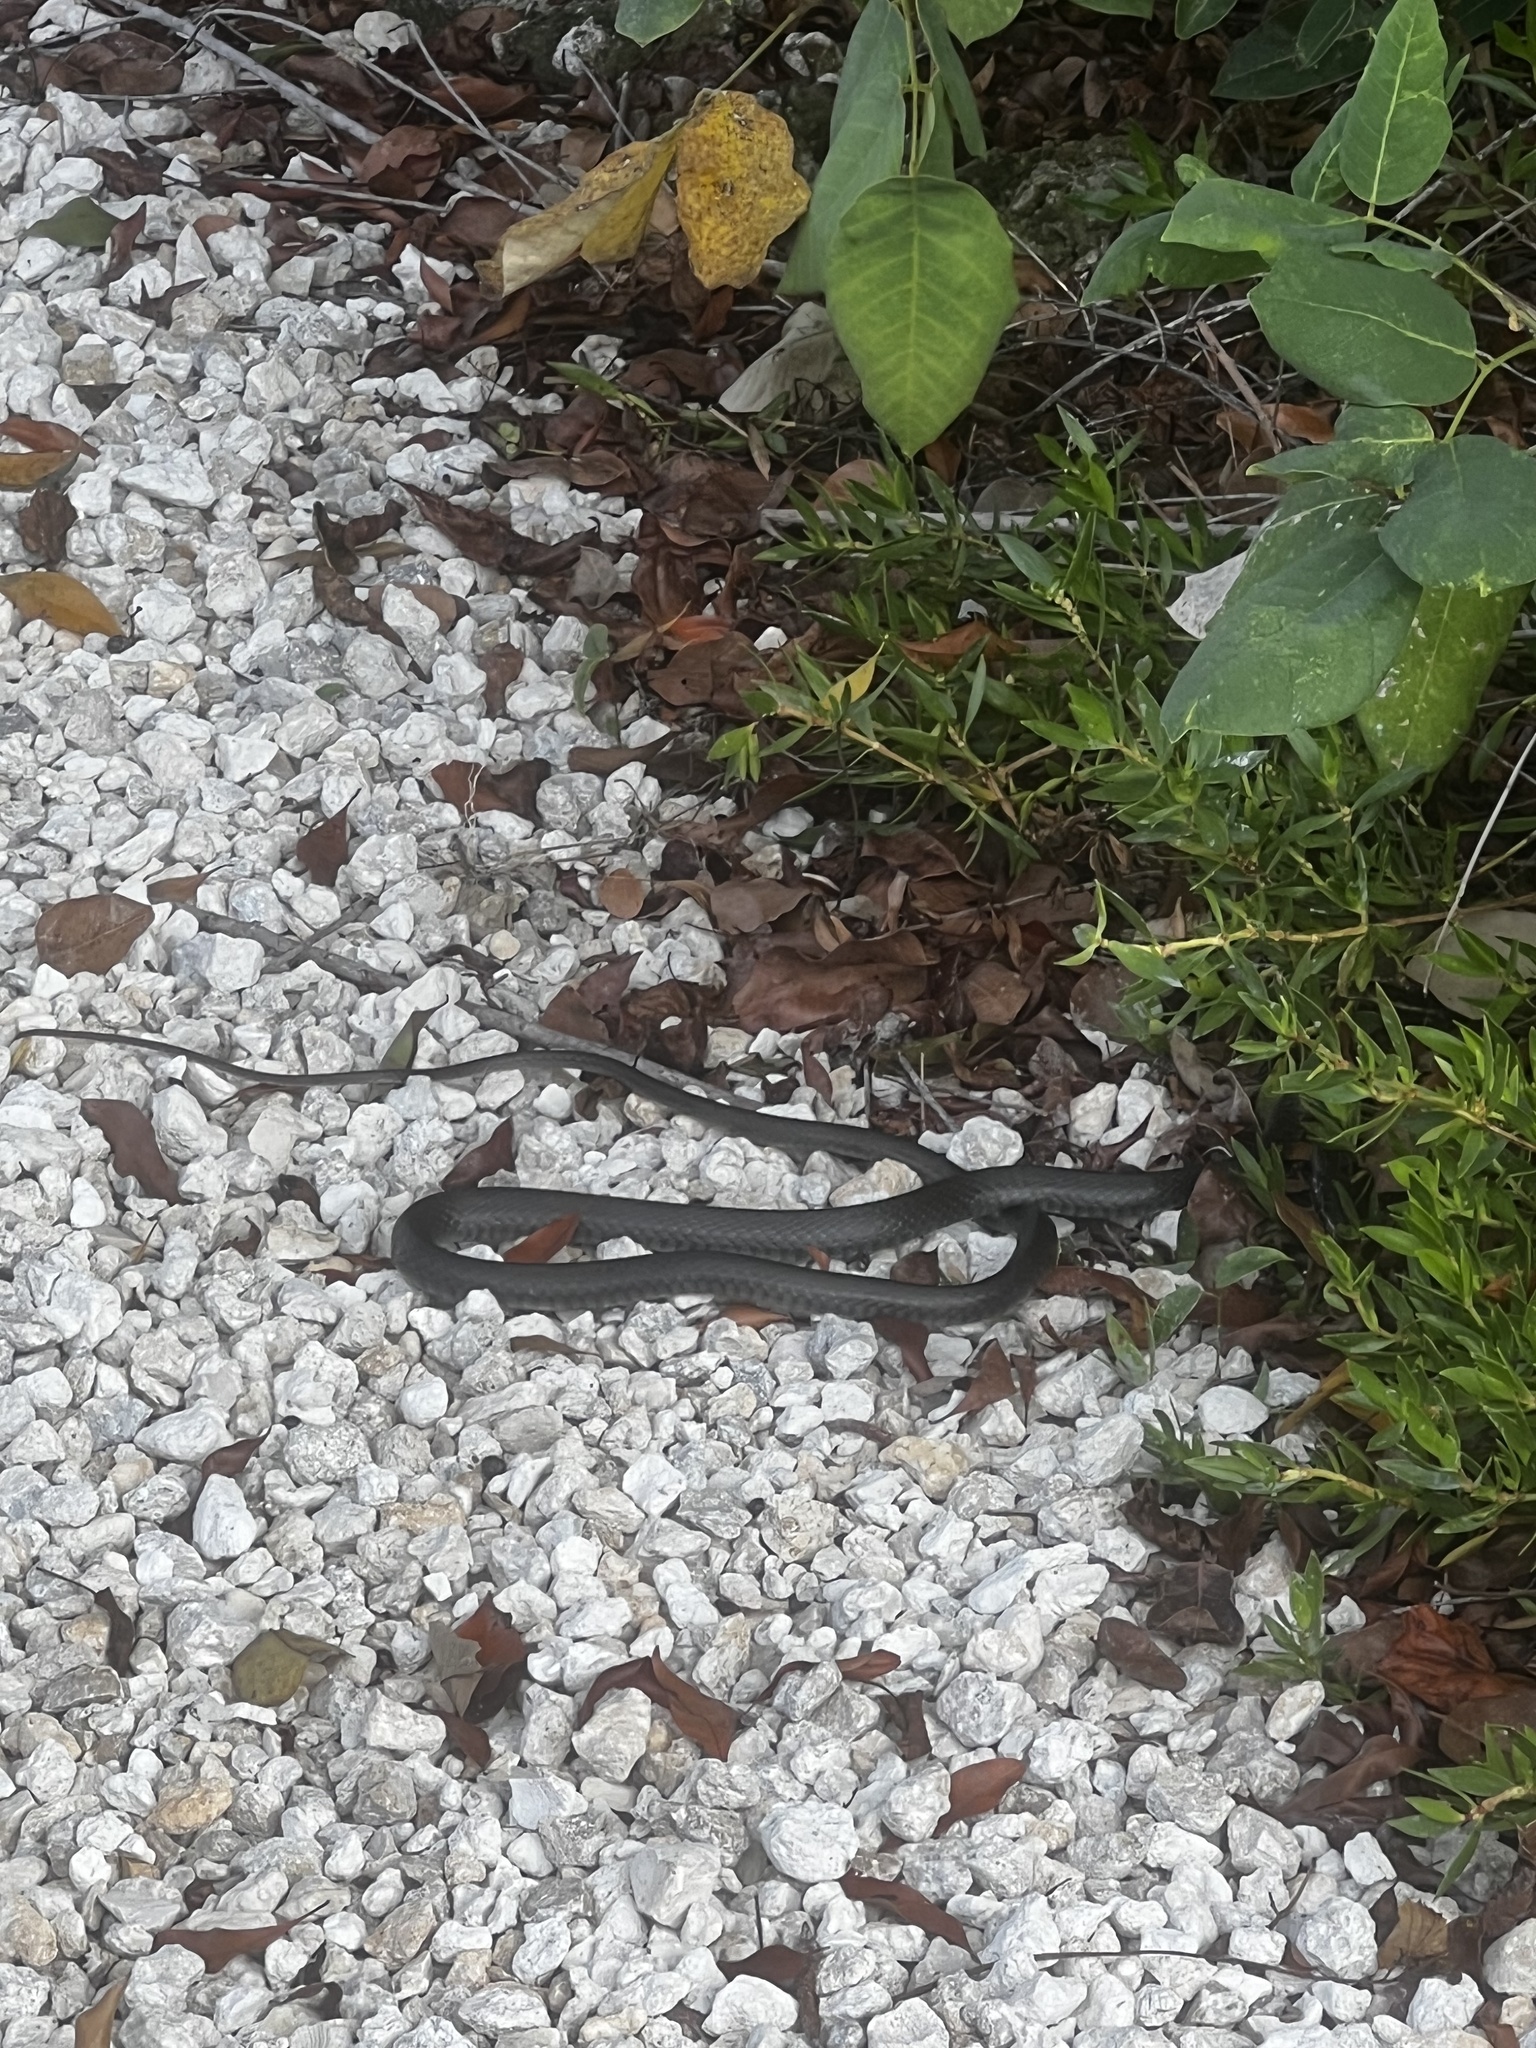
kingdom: Animalia
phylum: Chordata
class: Squamata
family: Colubridae
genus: Coluber
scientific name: Coluber constrictor
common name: Eastern racer
